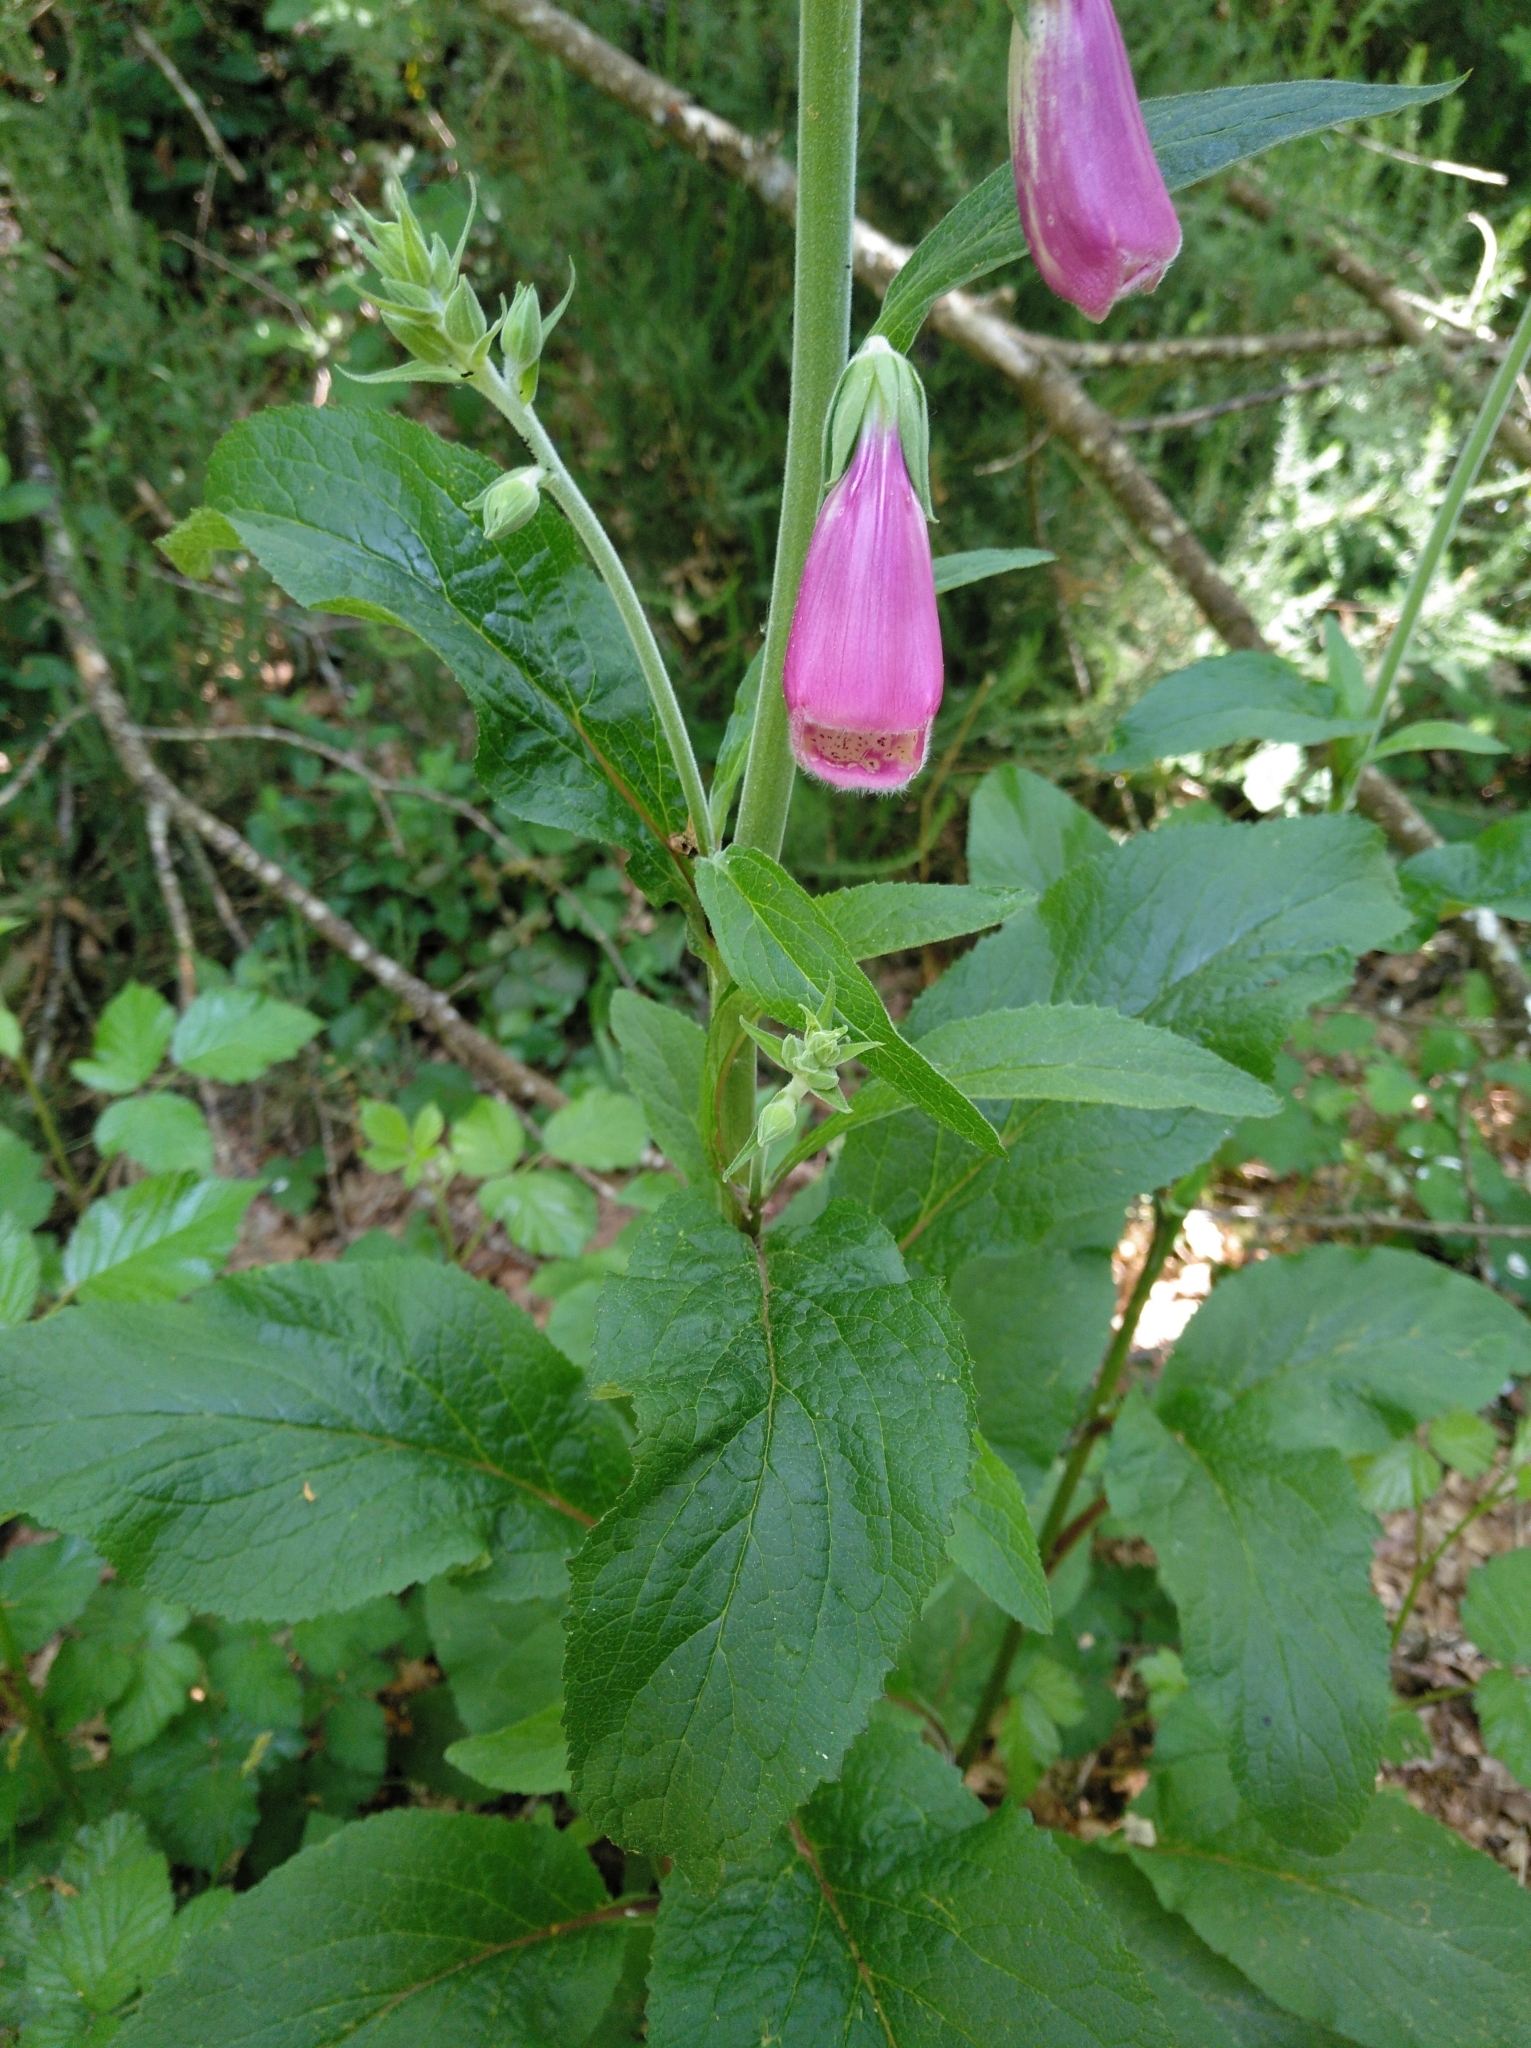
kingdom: Plantae
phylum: Tracheophyta
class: Magnoliopsida
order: Lamiales
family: Plantaginaceae
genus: Digitalis
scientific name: Digitalis purpurea
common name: Foxglove
